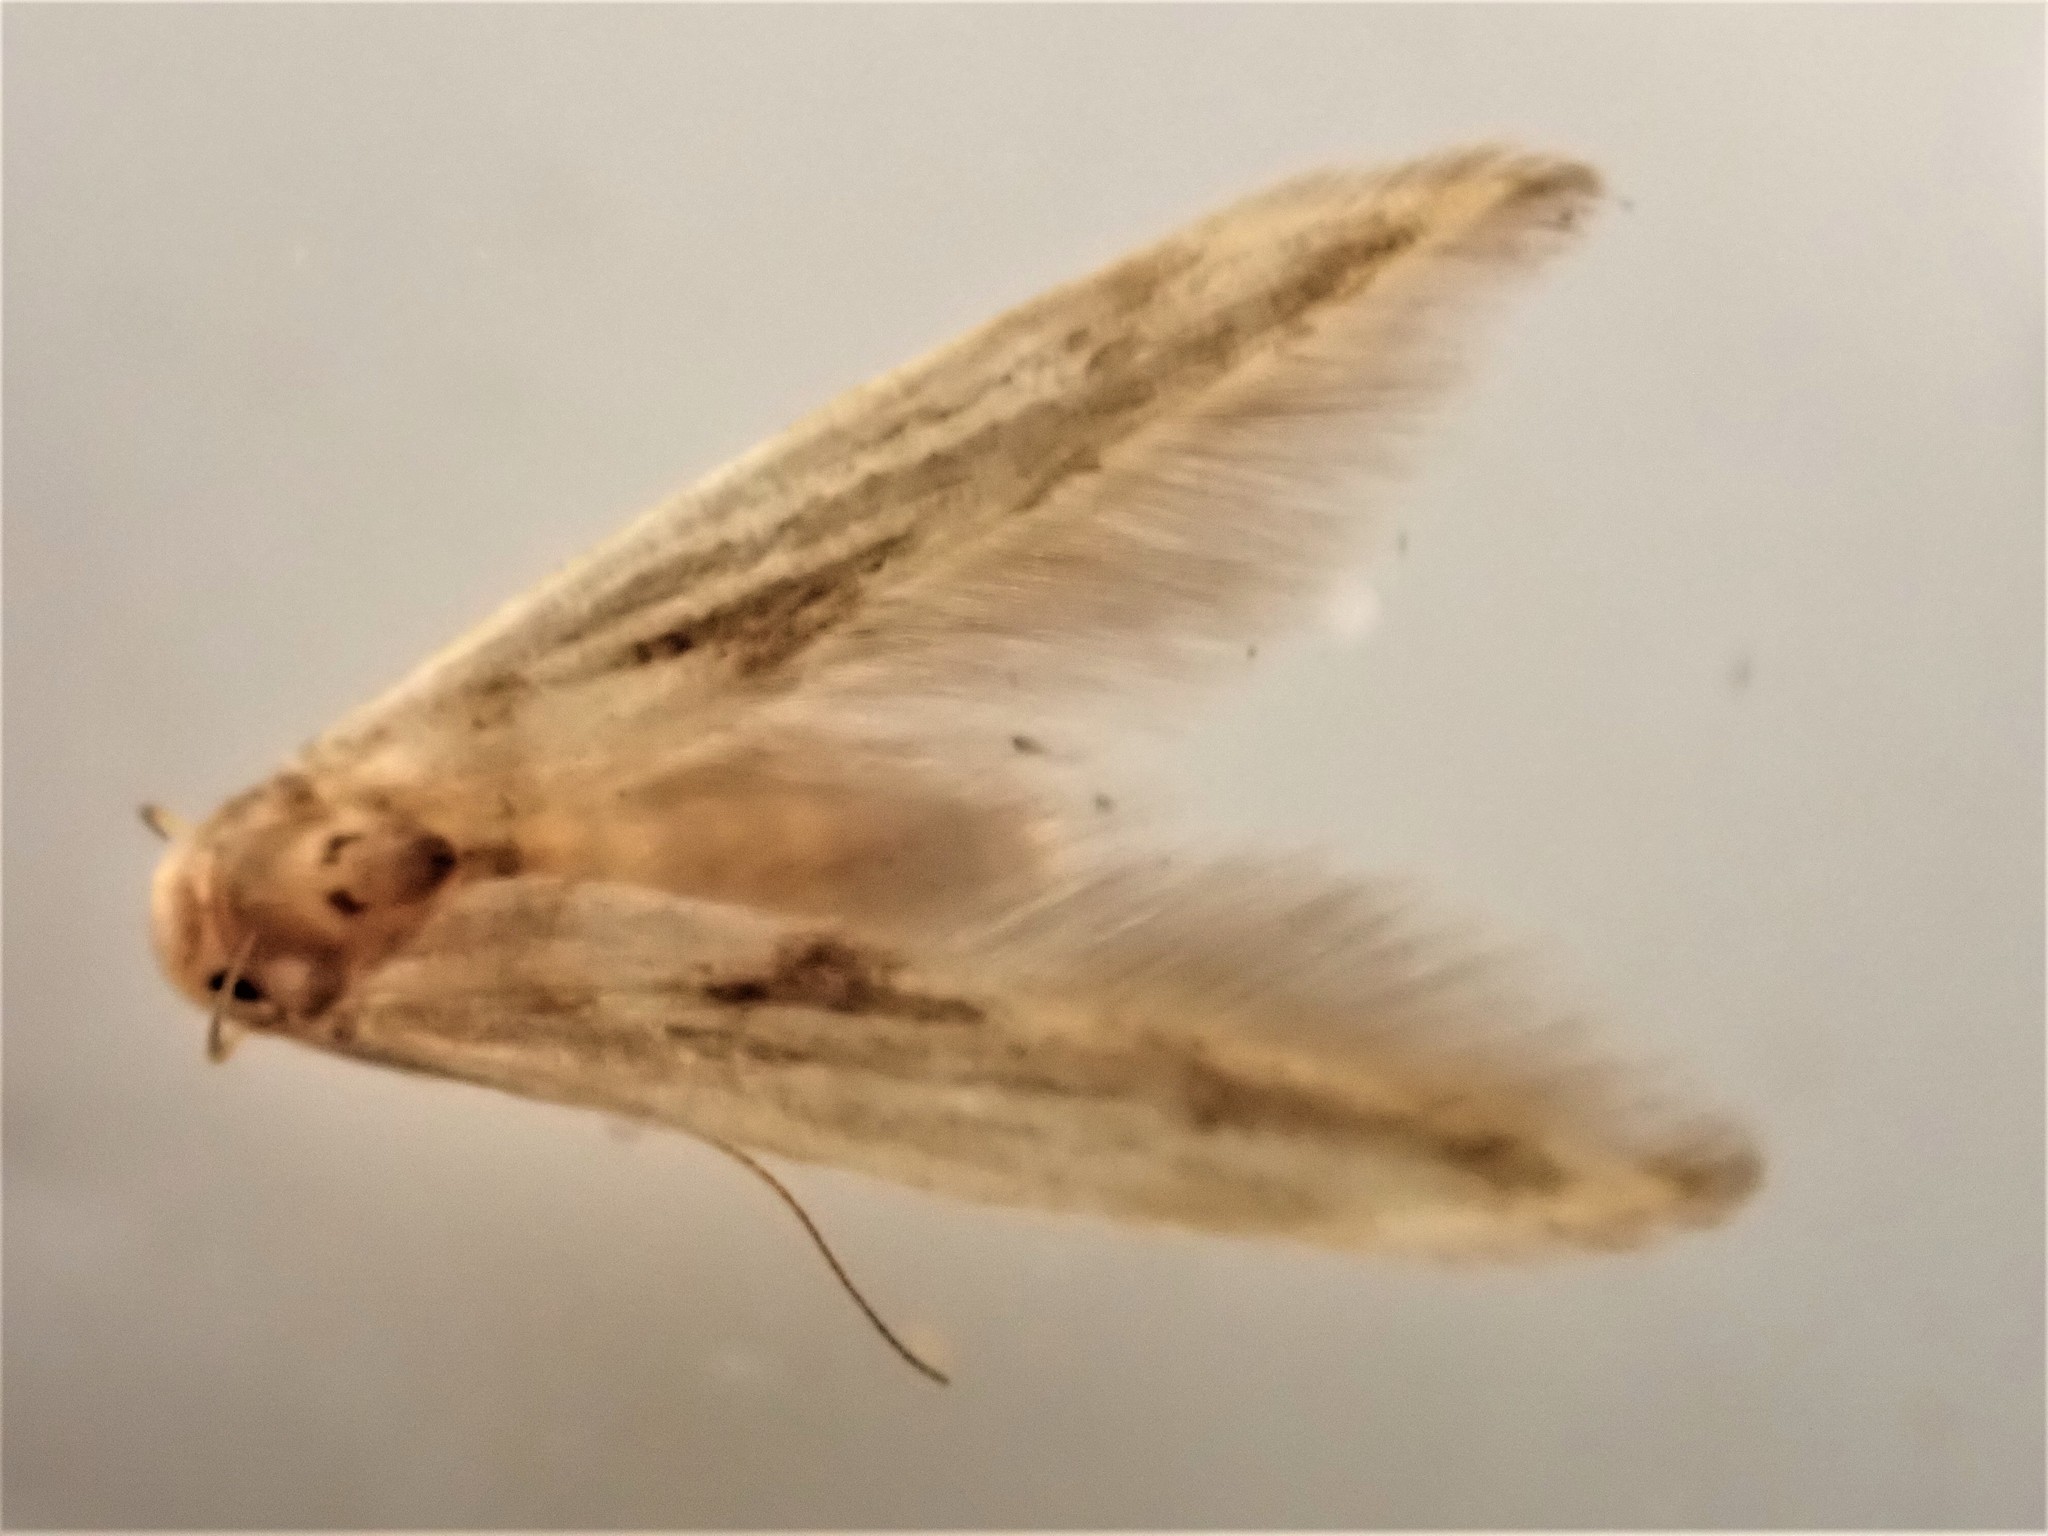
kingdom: Animalia
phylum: Arthropoda
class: Insecta
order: Lepidoptera
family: Stathmopodidae
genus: Stathmopoda
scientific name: Stathmopoda plumbiflua
